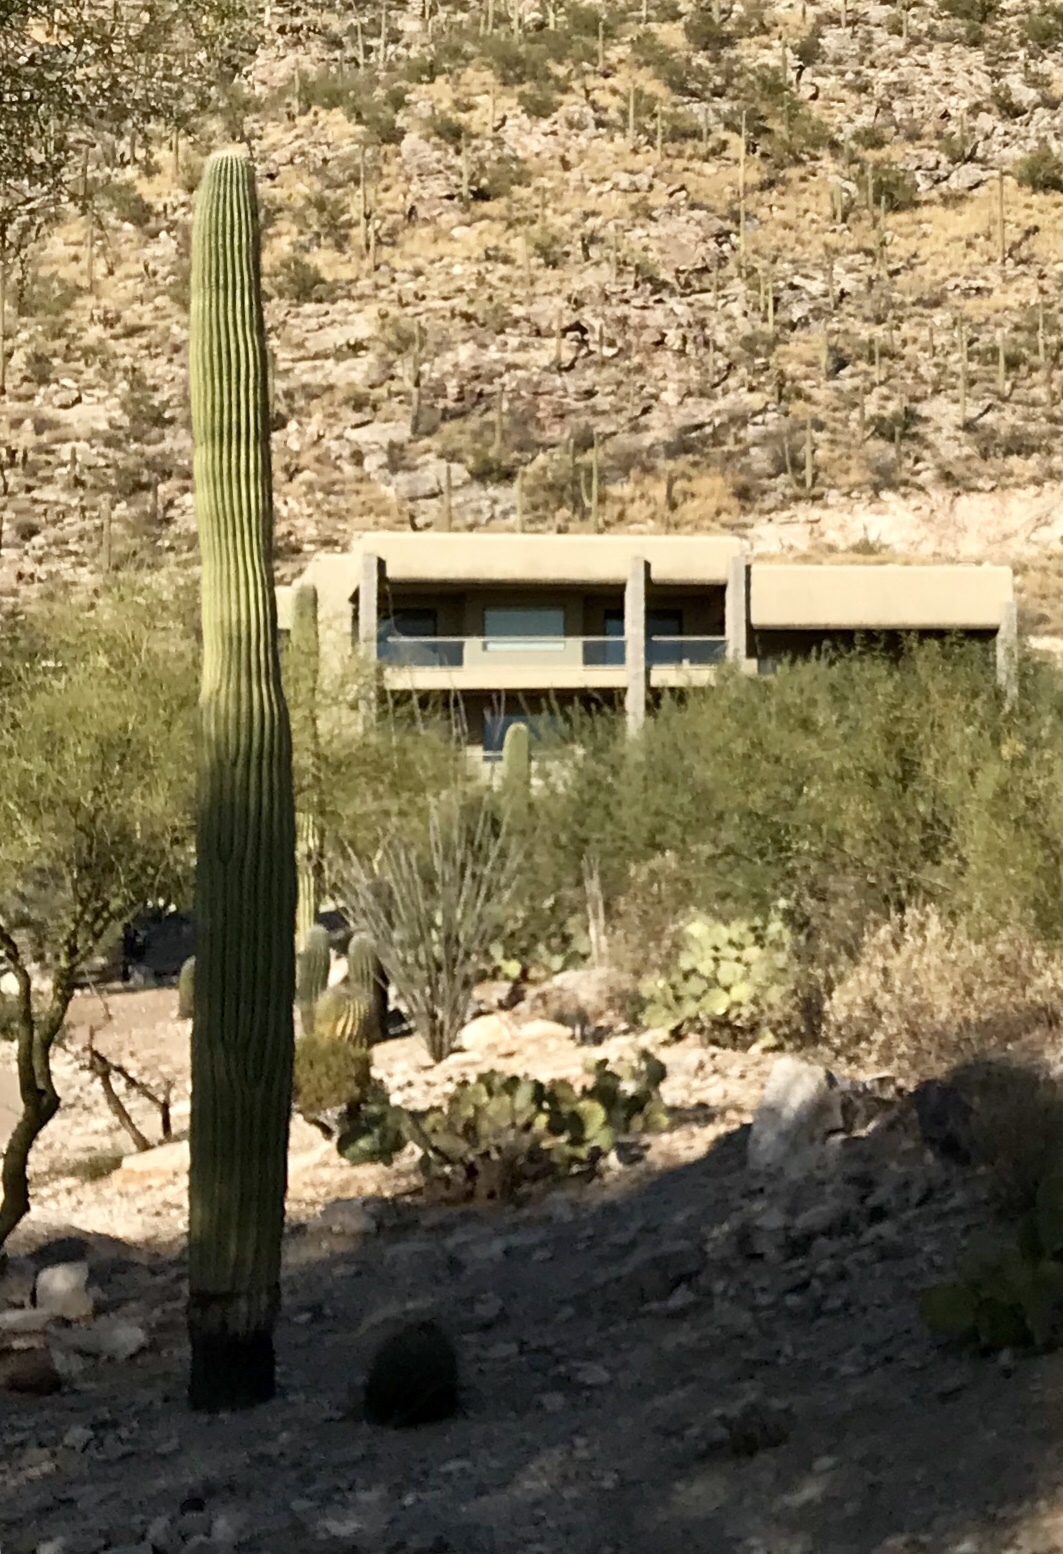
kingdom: Plantae
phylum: Tracheophyta
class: Magnoliopsida
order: Caryophyllales
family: Cactaceae
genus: Carnegiea
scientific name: Carnegiea gigantea
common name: Saguaro
